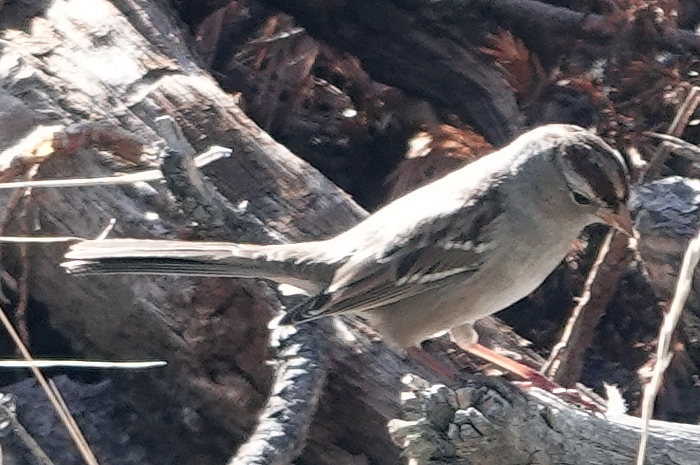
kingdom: Animalia
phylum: Chordata
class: Aves
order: Passeriformes
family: Passerellidae
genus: Zonotrichia
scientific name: Zonotrichia leucophrys
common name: White-crowned sparrow
